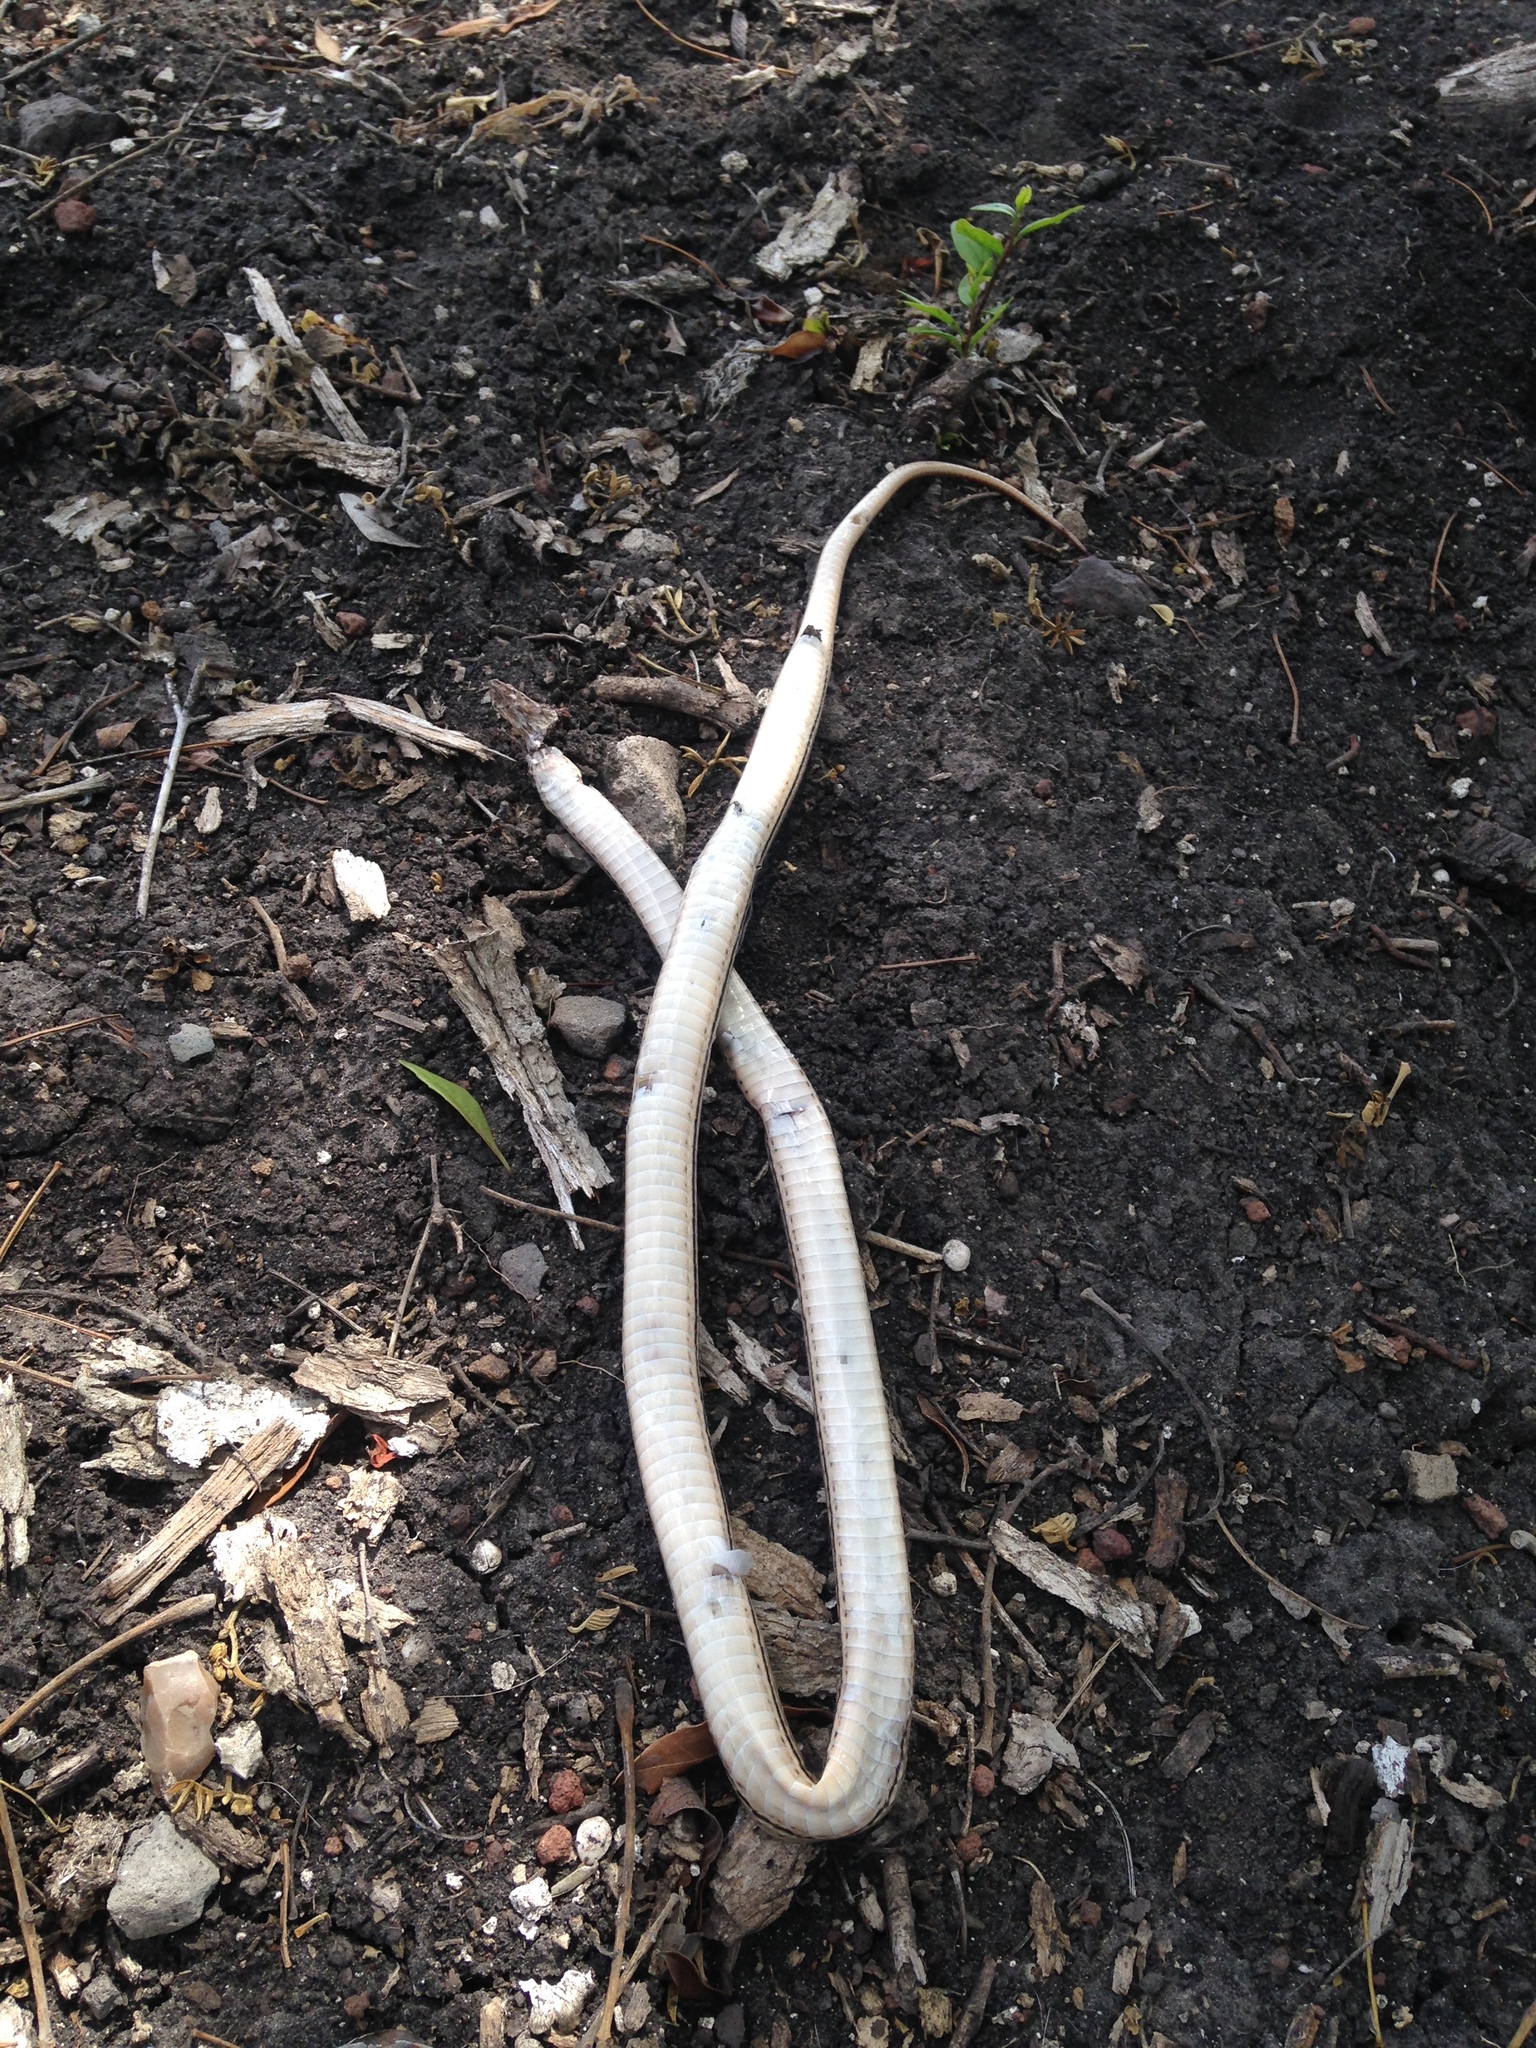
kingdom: Animalia
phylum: Chordata
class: Squamata
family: Colubridae
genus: Conophis
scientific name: Conophis lineatus
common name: Road guarder
